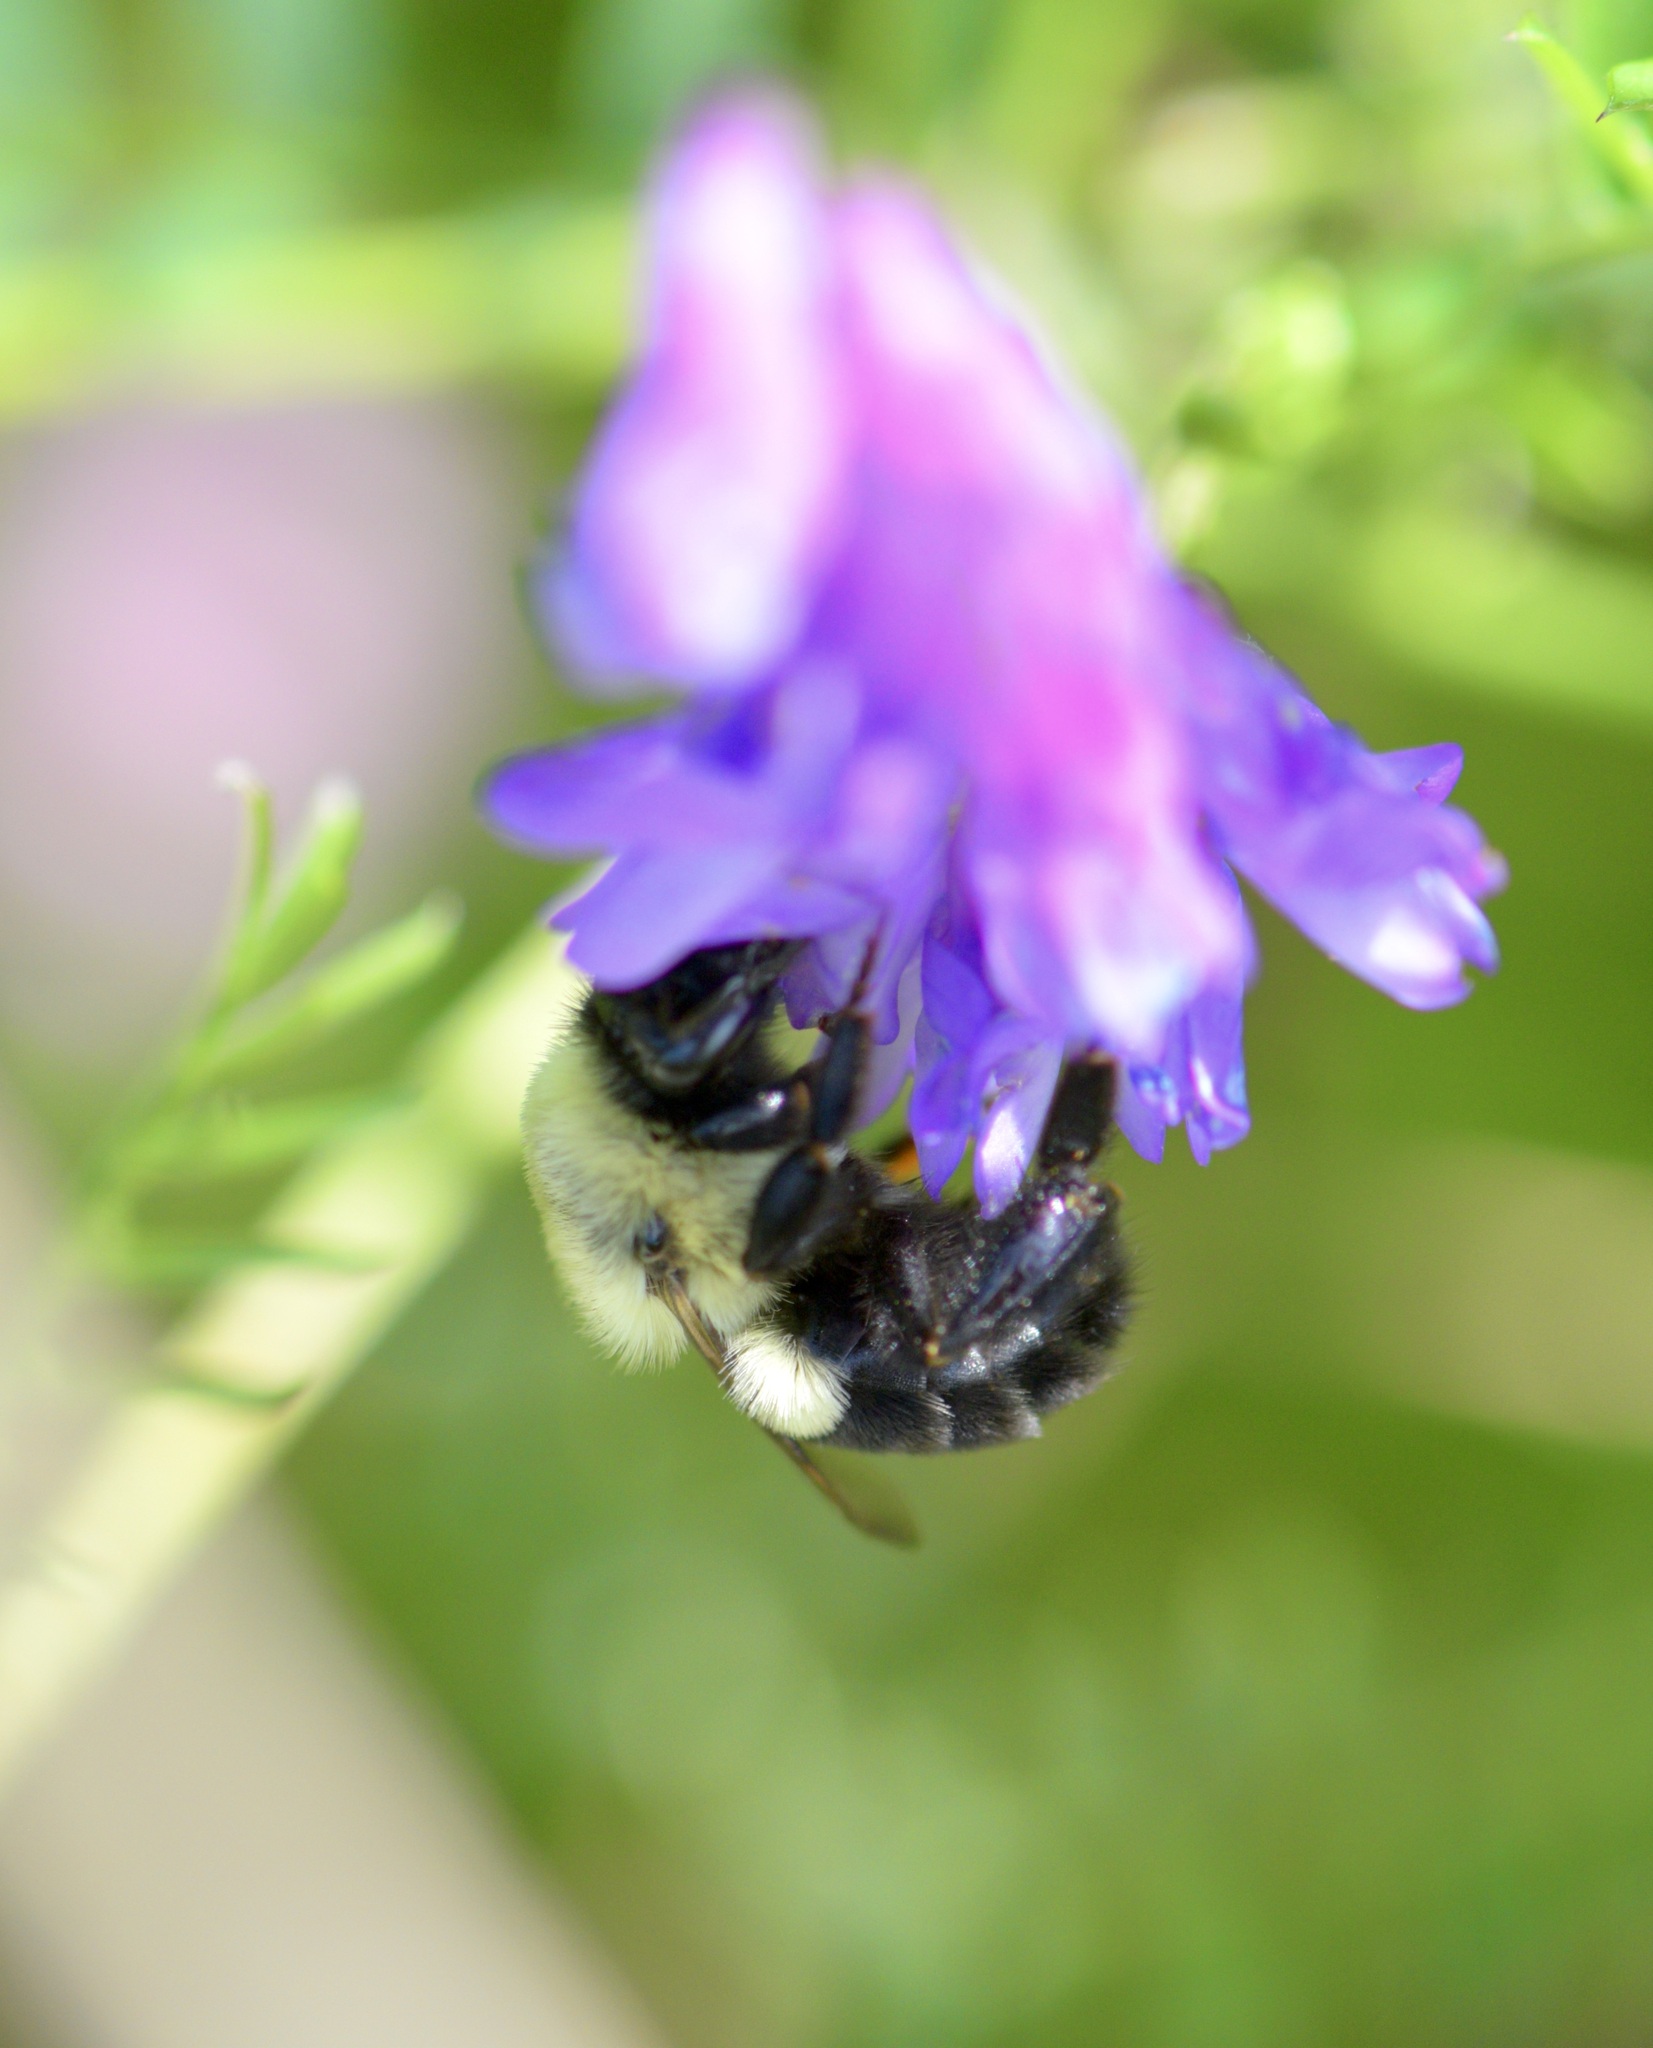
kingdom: Animalia
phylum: Arthropoda
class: Insecta
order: Hymenoptera
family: Apidae
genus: Bombus
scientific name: Bombus impatiens
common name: Common eastern bumble bee
